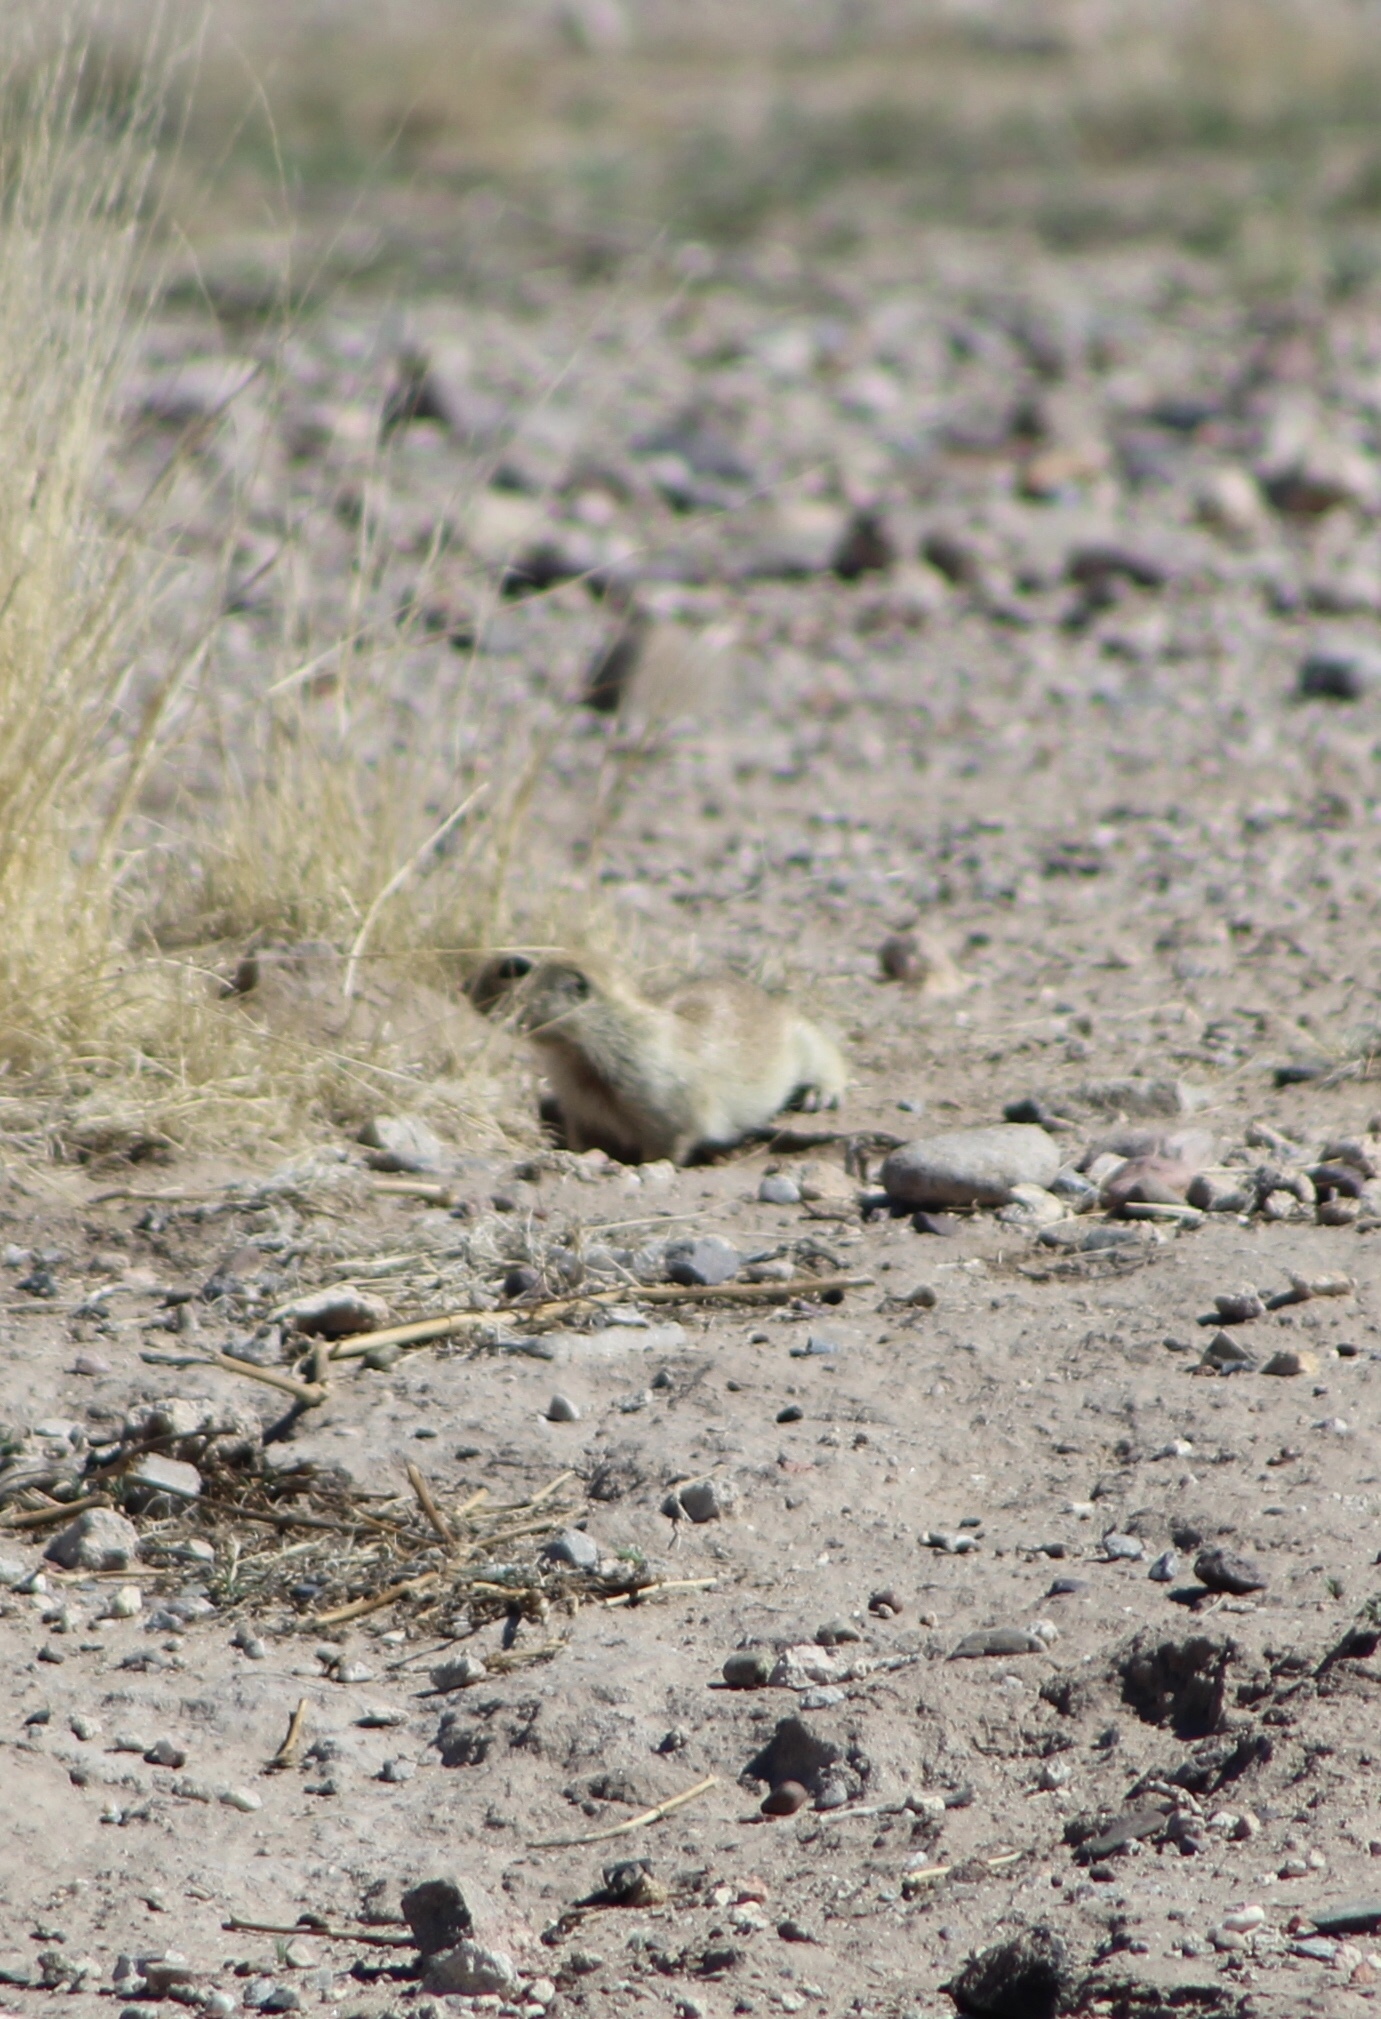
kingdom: Animalia
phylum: Chordata
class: Mammalia
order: Rodentia
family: Sciuridae
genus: Xerospermophilus
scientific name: Xerospermophilus tereticaudus
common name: Round-tailed ground squirrel
